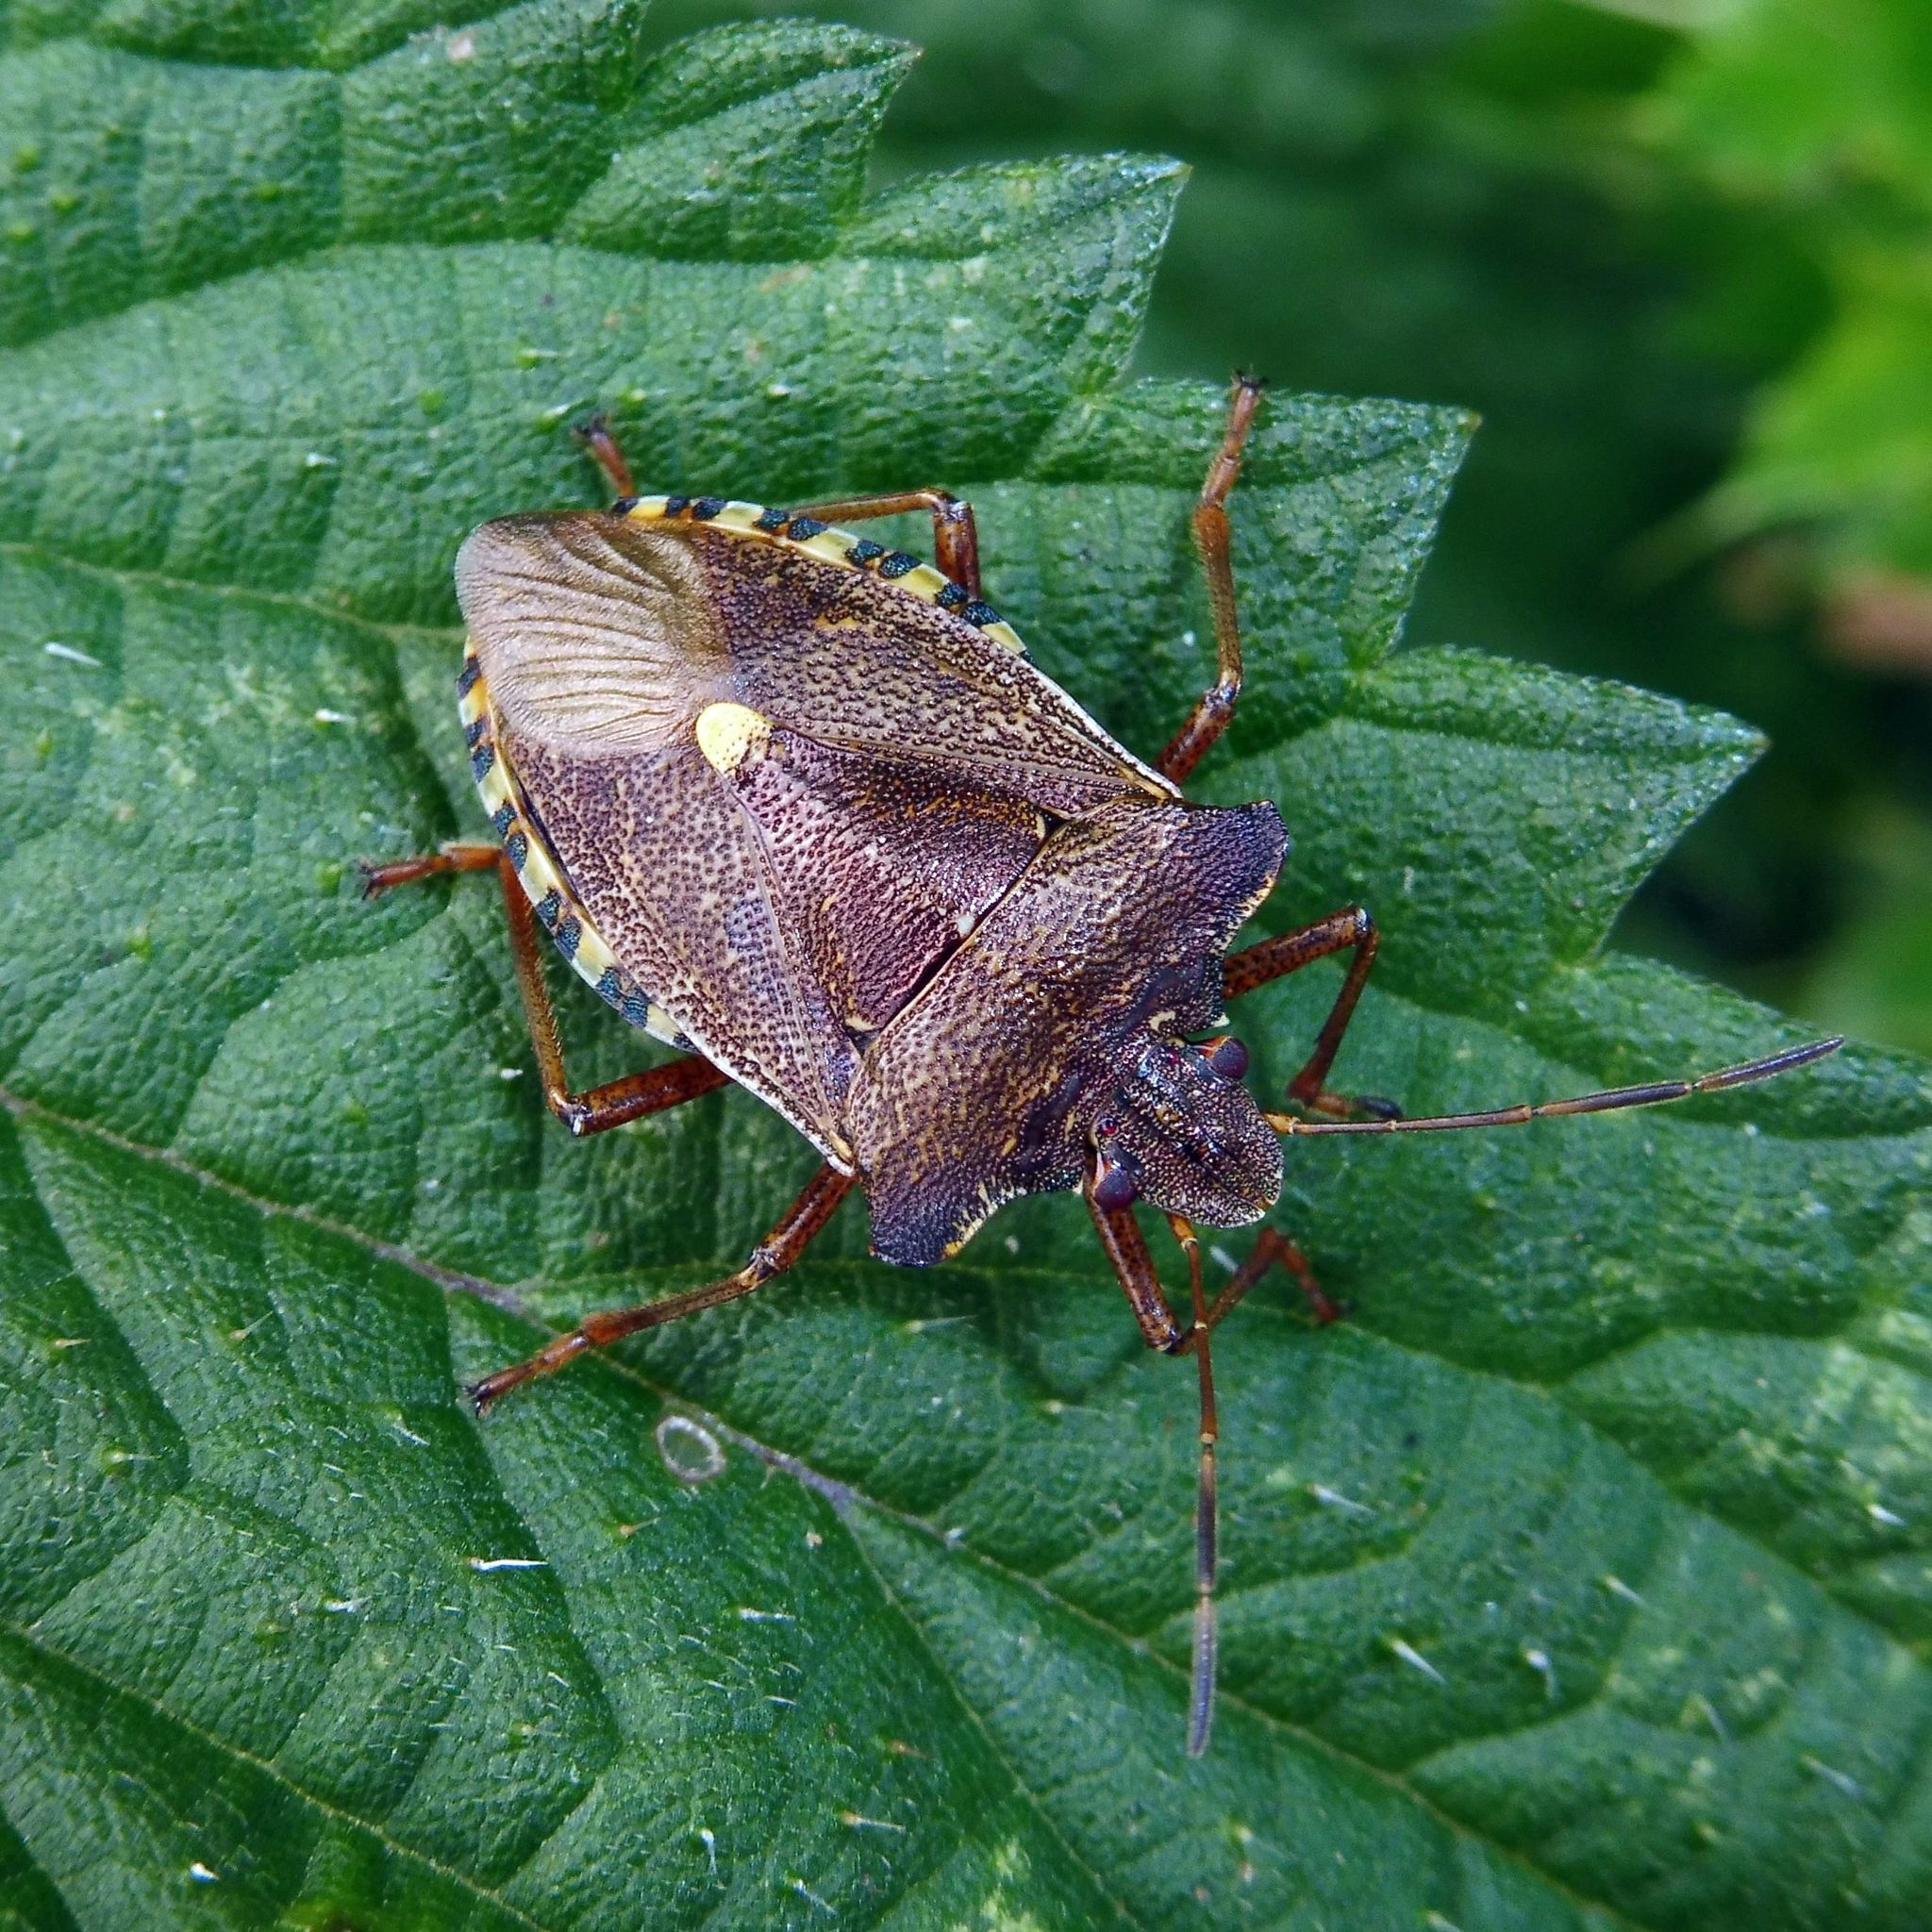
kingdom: Animalia
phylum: Arthropoda
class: Insecta
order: Hemiptera
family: Pentatomidae
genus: Pentatoma
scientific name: Pentatoma rufipes
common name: Forest bug
